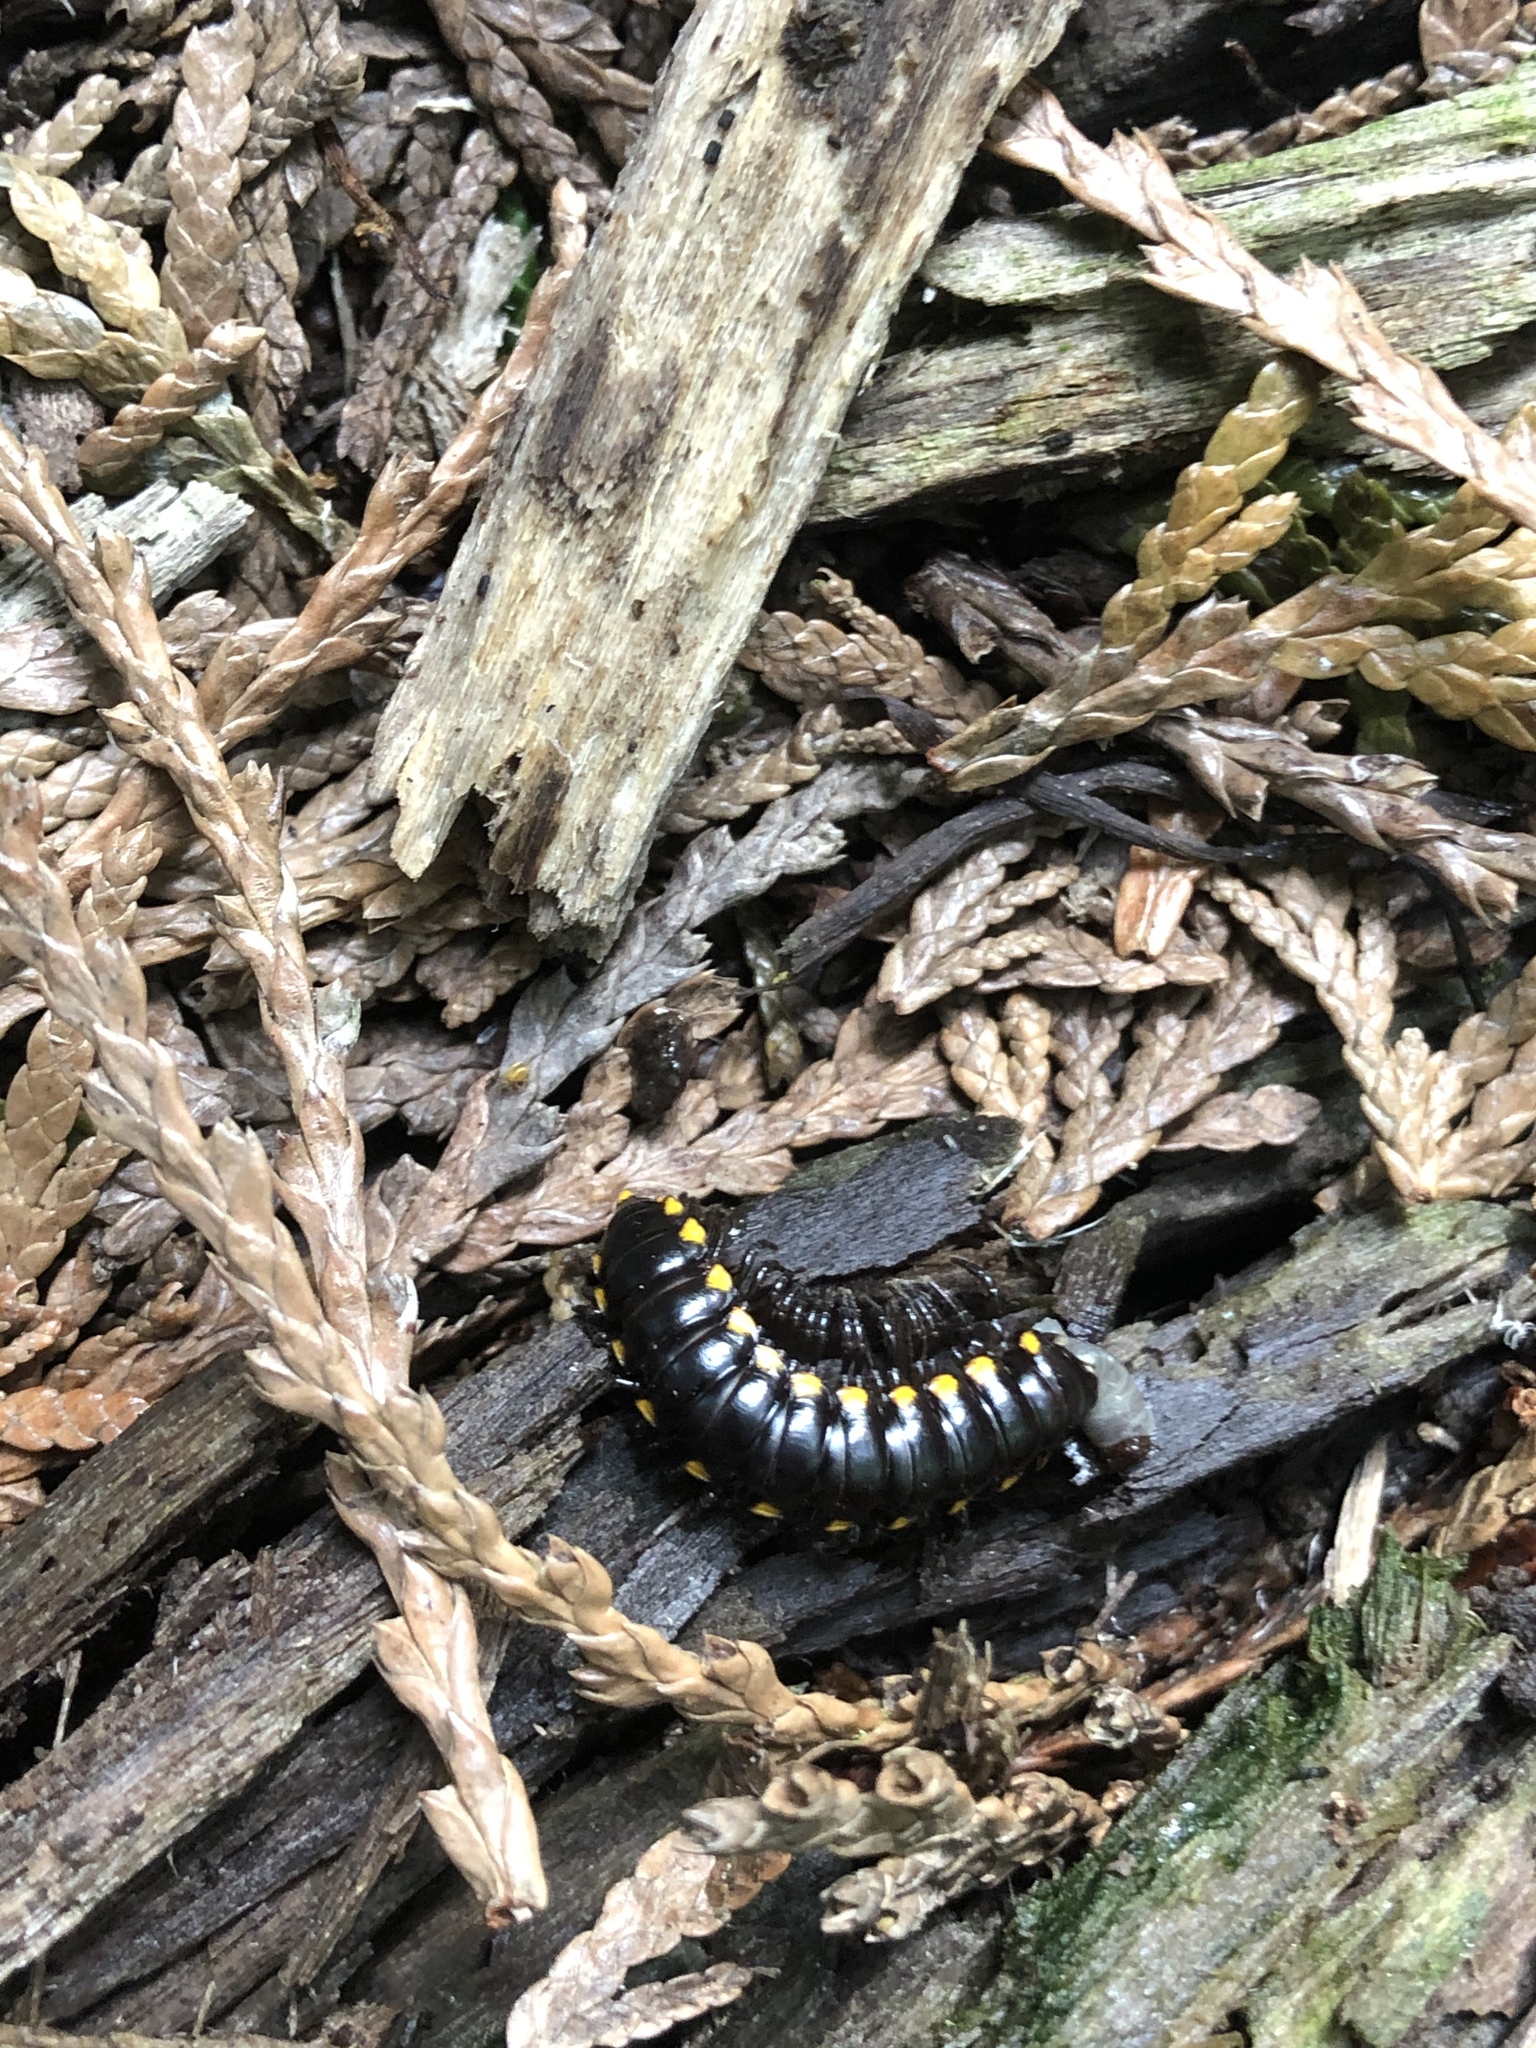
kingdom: Animalia
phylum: Arthropoda
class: Diplopoda
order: Polydesmida
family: Xystodesmidae
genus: Harpaphe
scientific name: Harpaphe haydeniana
